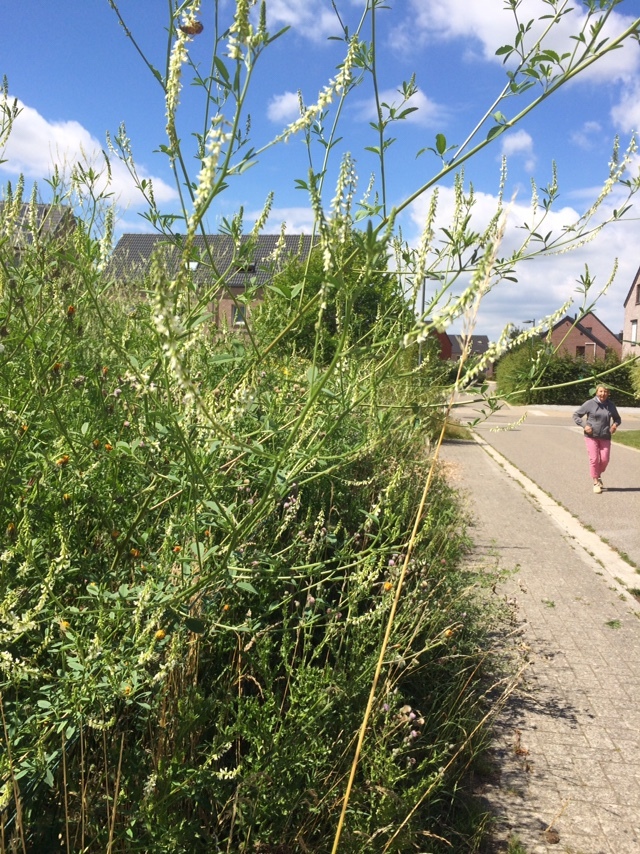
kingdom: Plantae
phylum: Tracheophyta
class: Magnoliopsida
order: Fabales
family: Fabaceae
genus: Melilotus
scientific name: Melilotus albus
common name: White melilot
